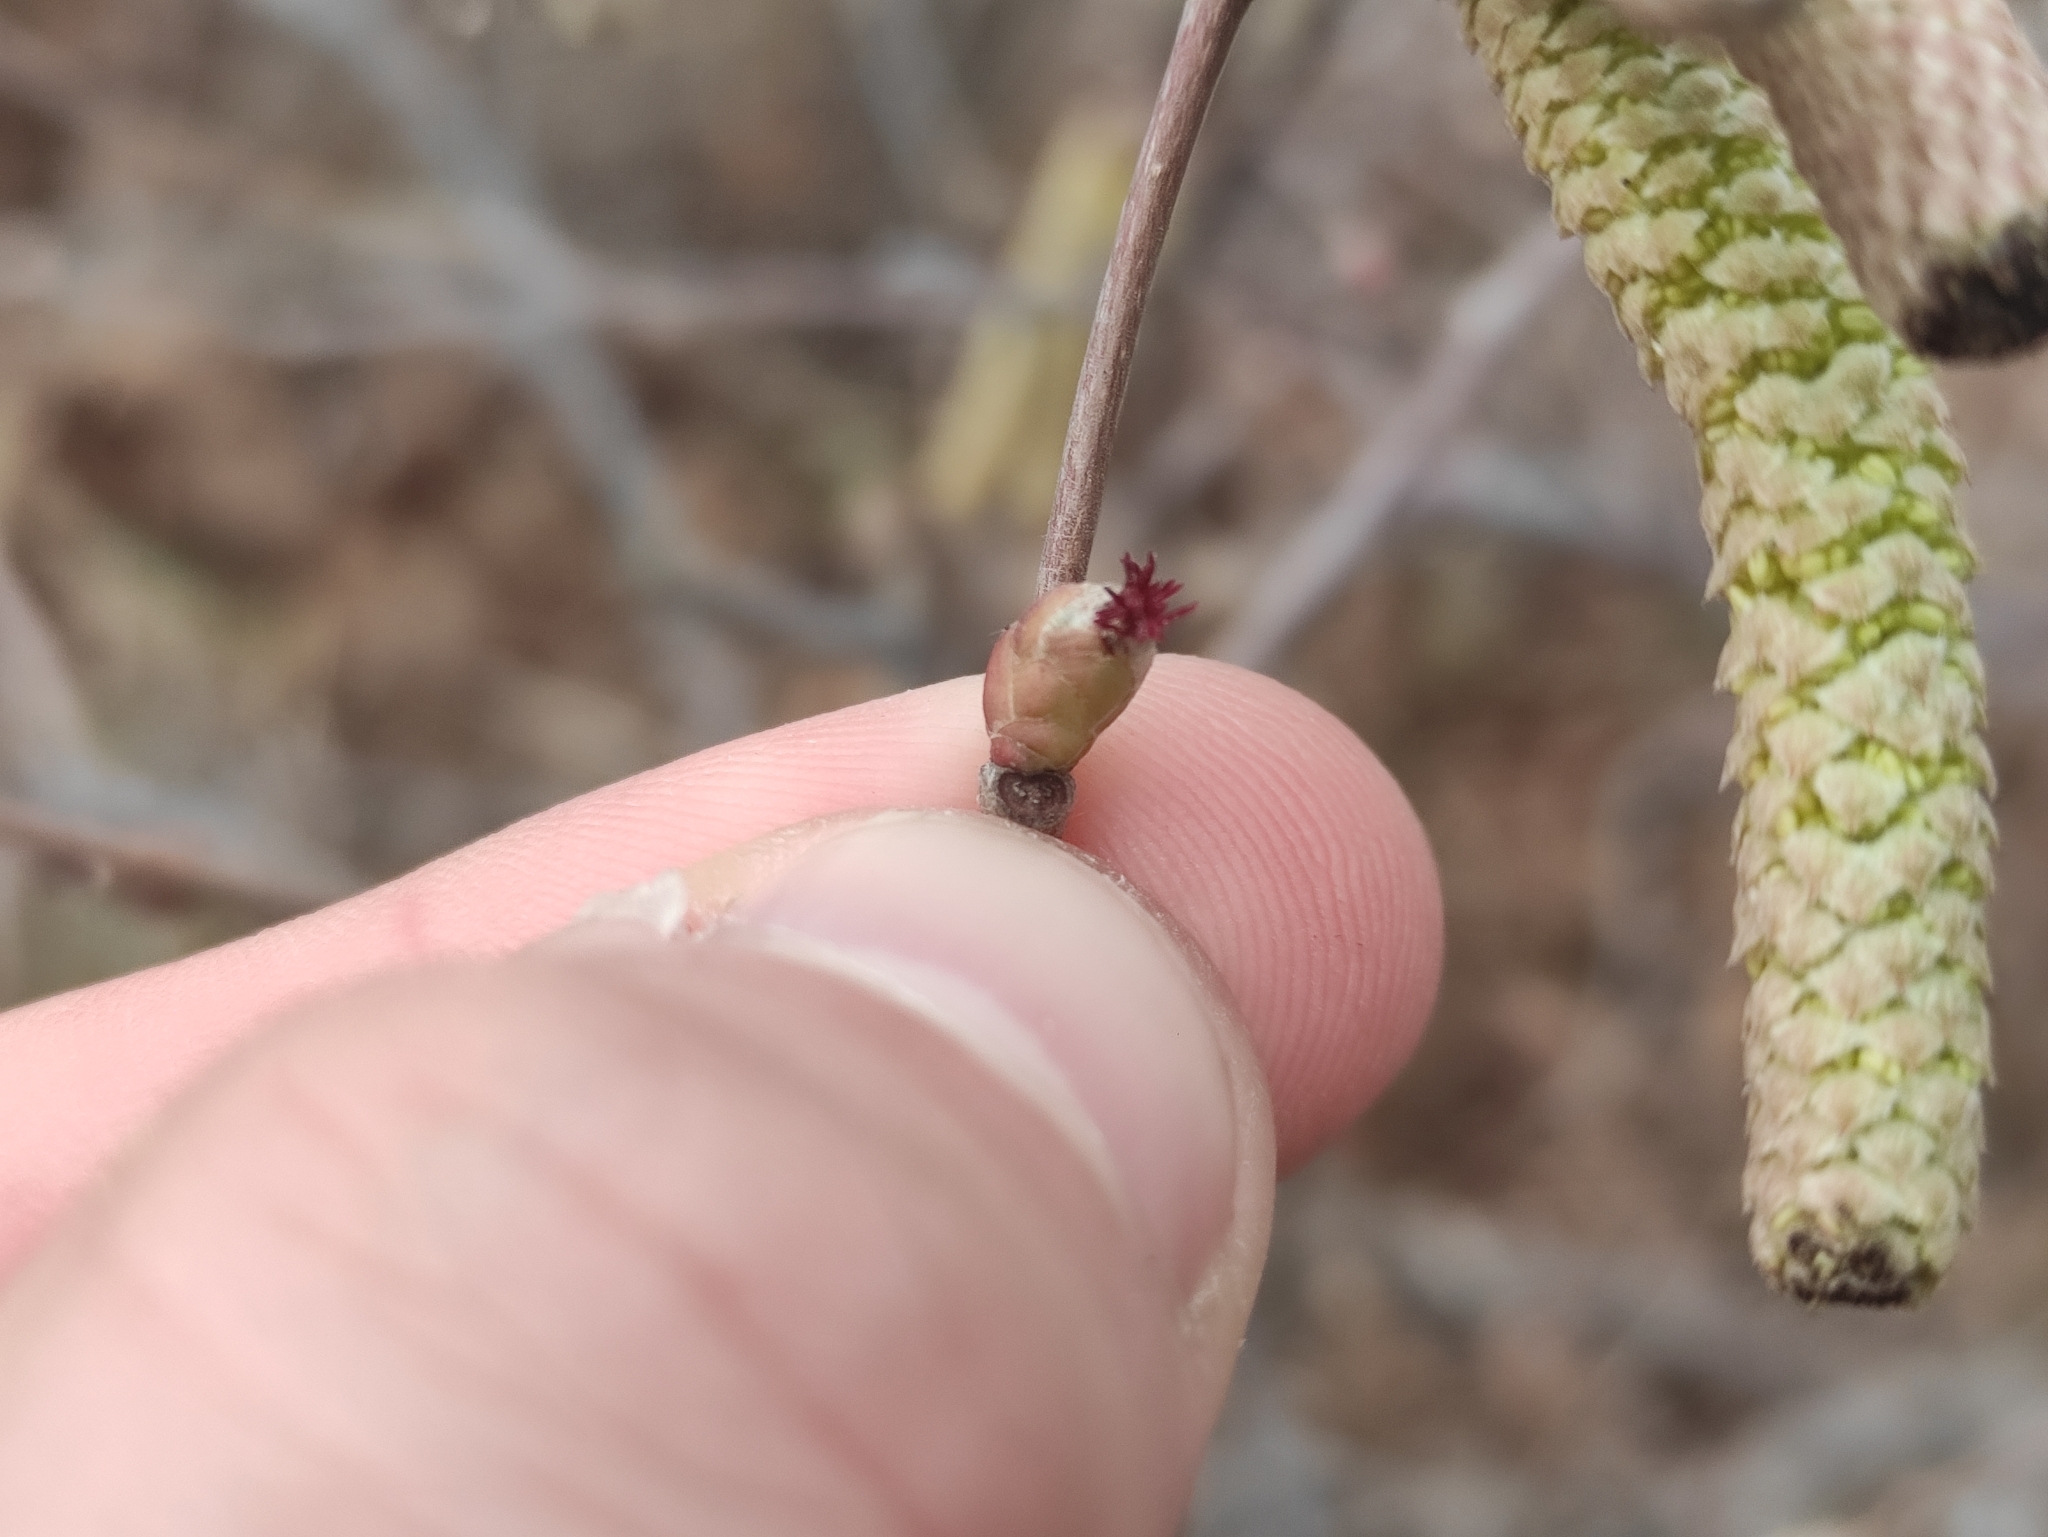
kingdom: Plantae
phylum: Tracheophyta
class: Magnoliopsida
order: Fagales
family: Betulaceae
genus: Corylus
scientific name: Corylus avellana
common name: European hazel
